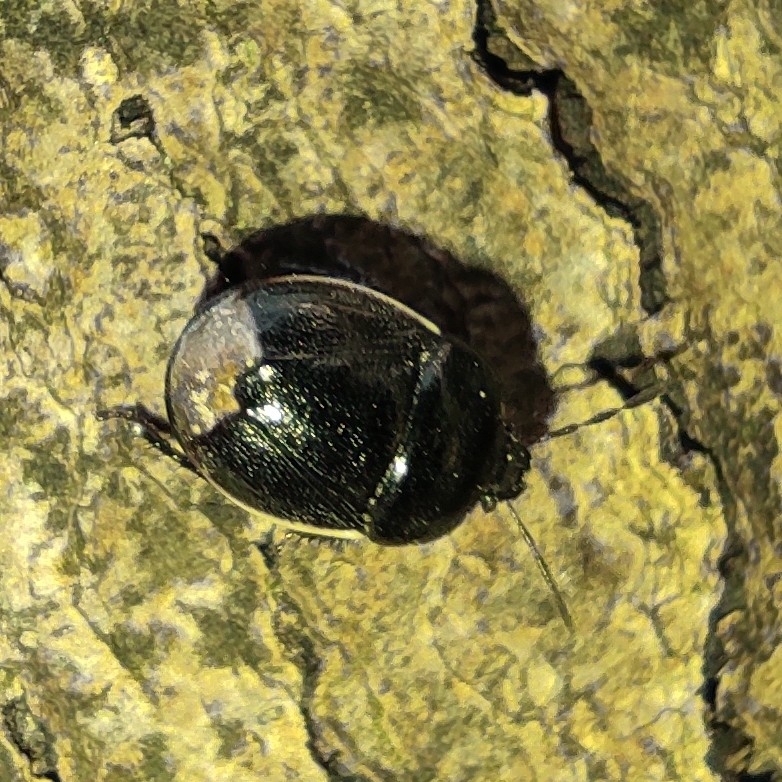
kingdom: Animalia
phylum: Arthropoda
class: Insecta
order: Hemiptera
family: Cydnidae
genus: Legnotus
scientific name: Legnotus limbosus
